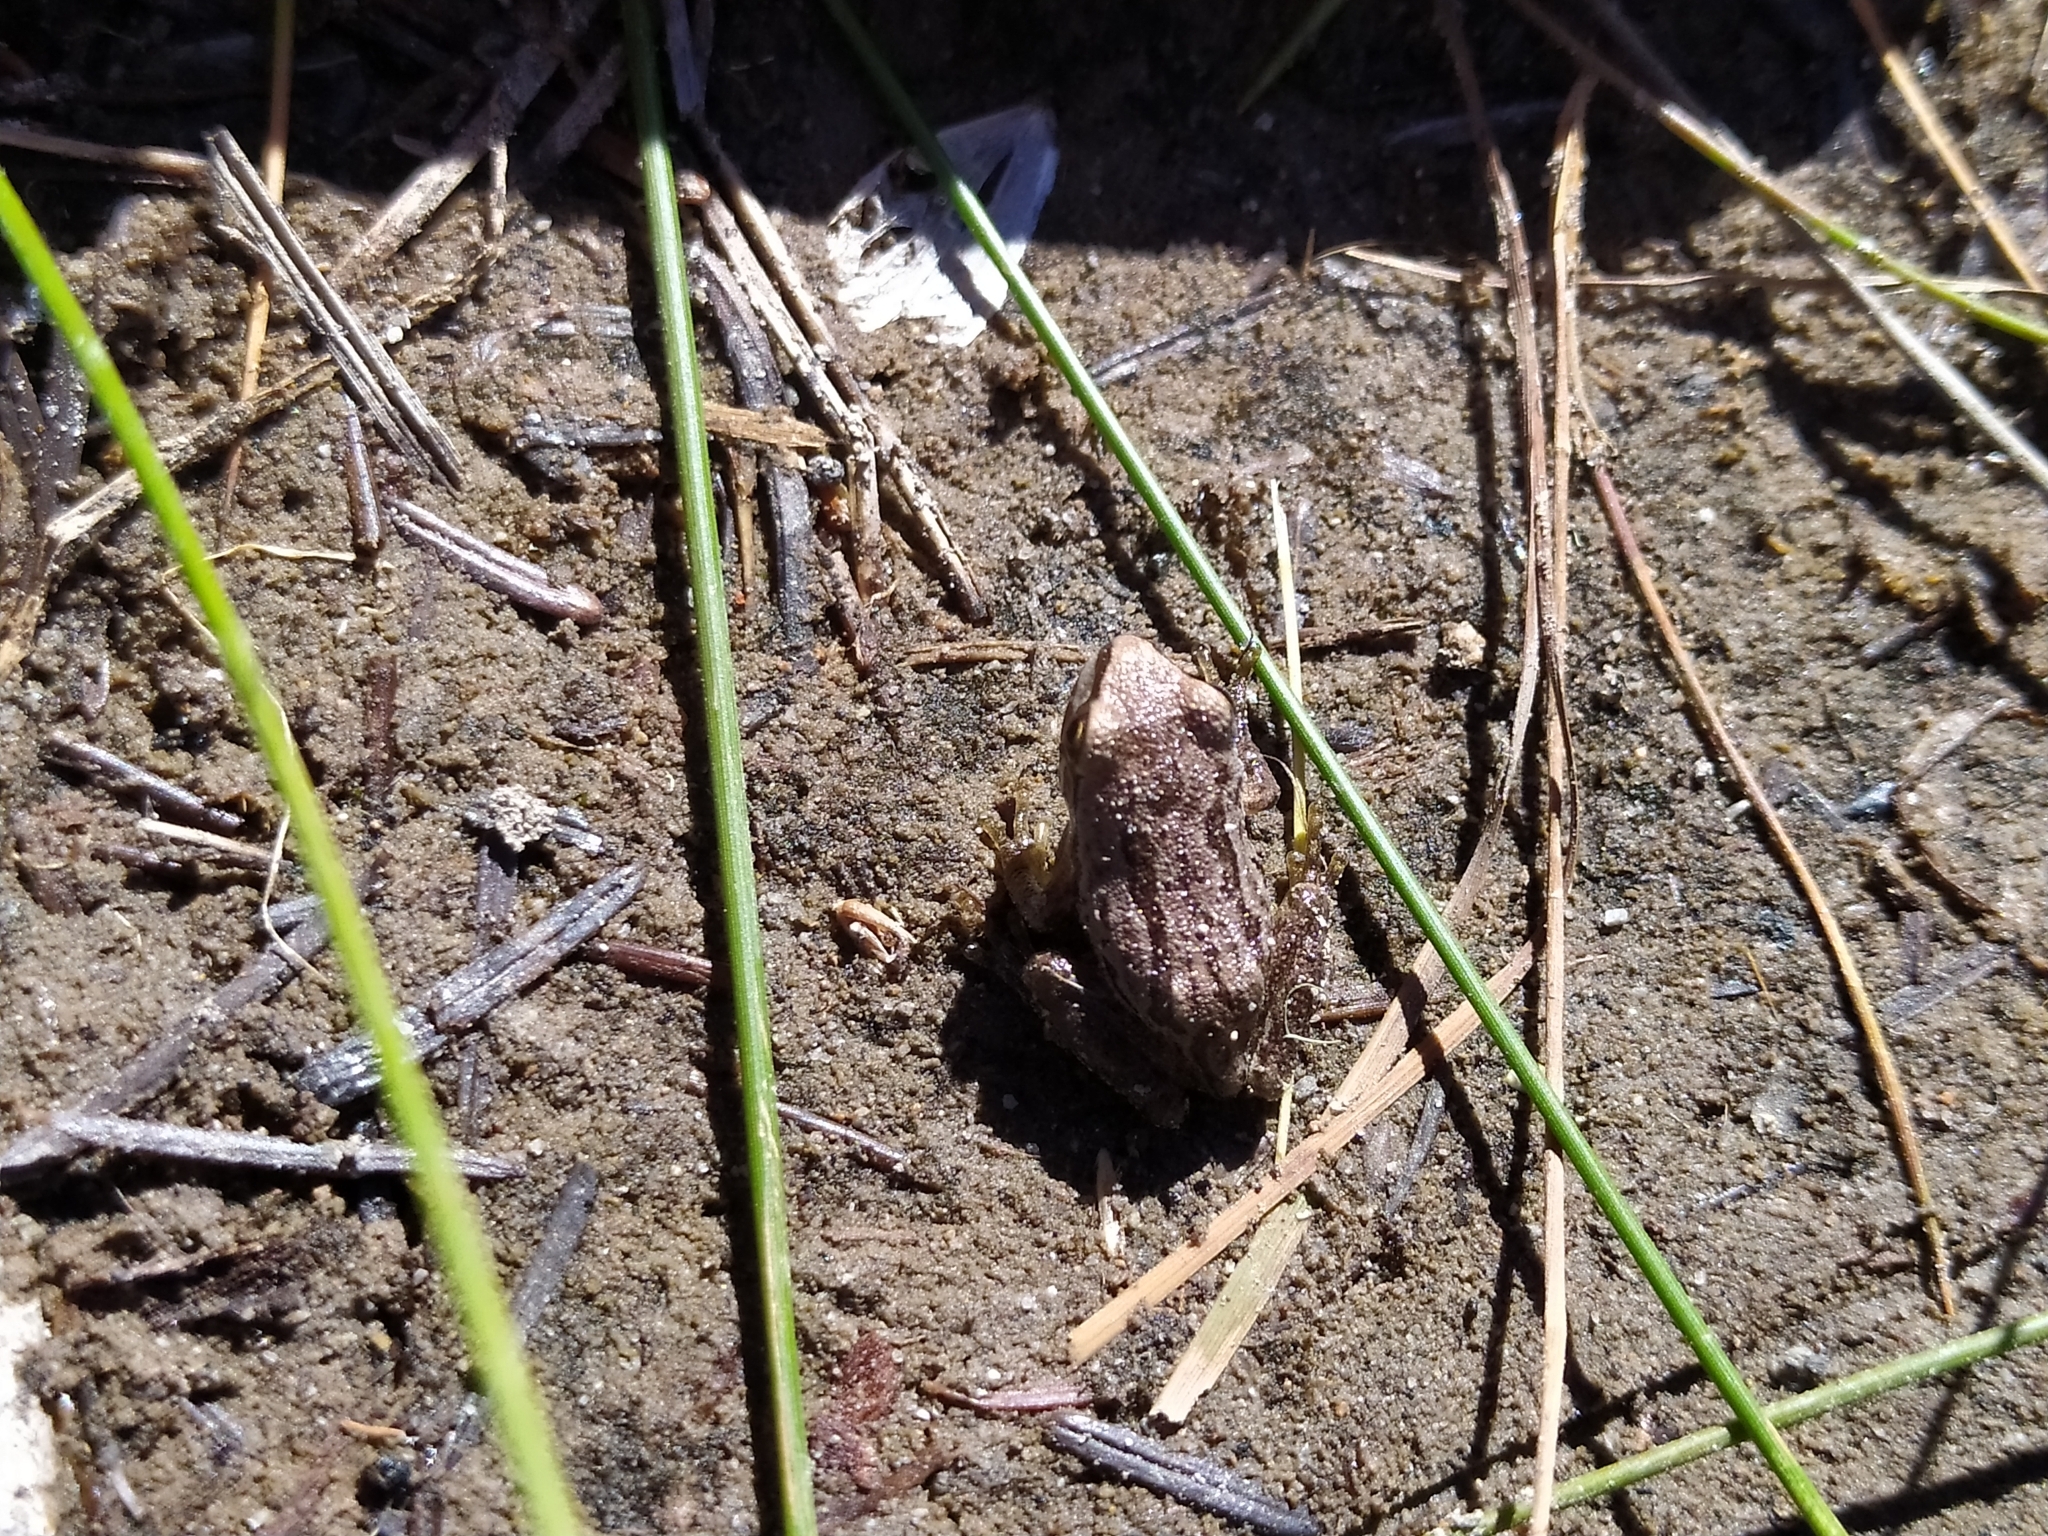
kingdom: Animalia
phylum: Chordata
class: Amphibia
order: Anura
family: Hylidae
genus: Pseudacris
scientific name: Pseudacris regilla
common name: Pacific chorus frog
